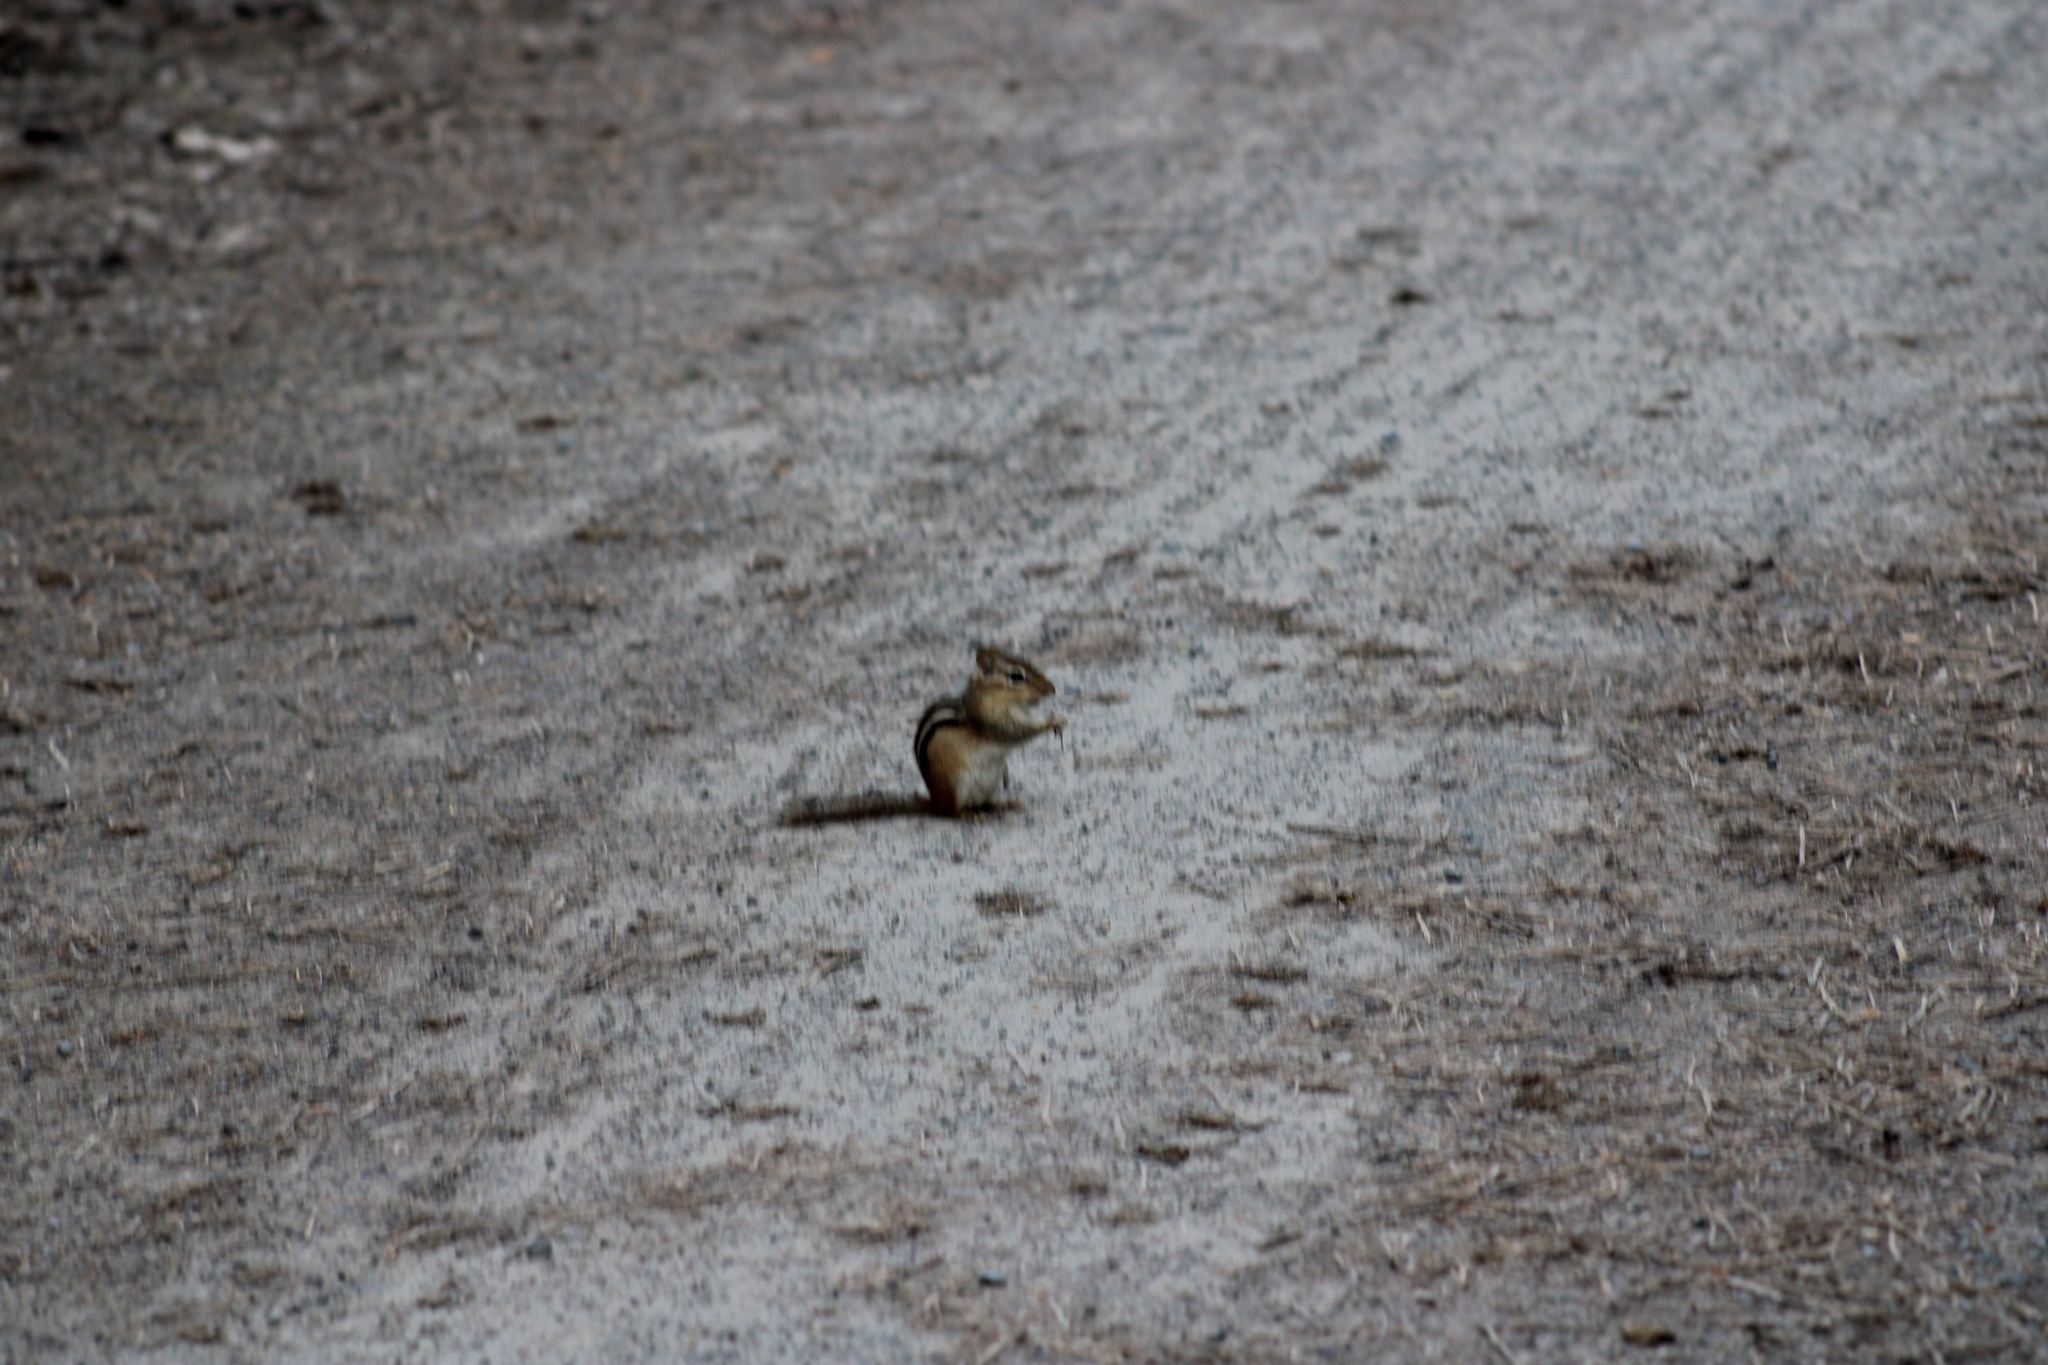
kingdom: Animalia
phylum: Chordata
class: Mammalia
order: Rodentia
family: Sciuridae
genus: Tamias
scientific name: Tamias striatus
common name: Eastern chipmunk
